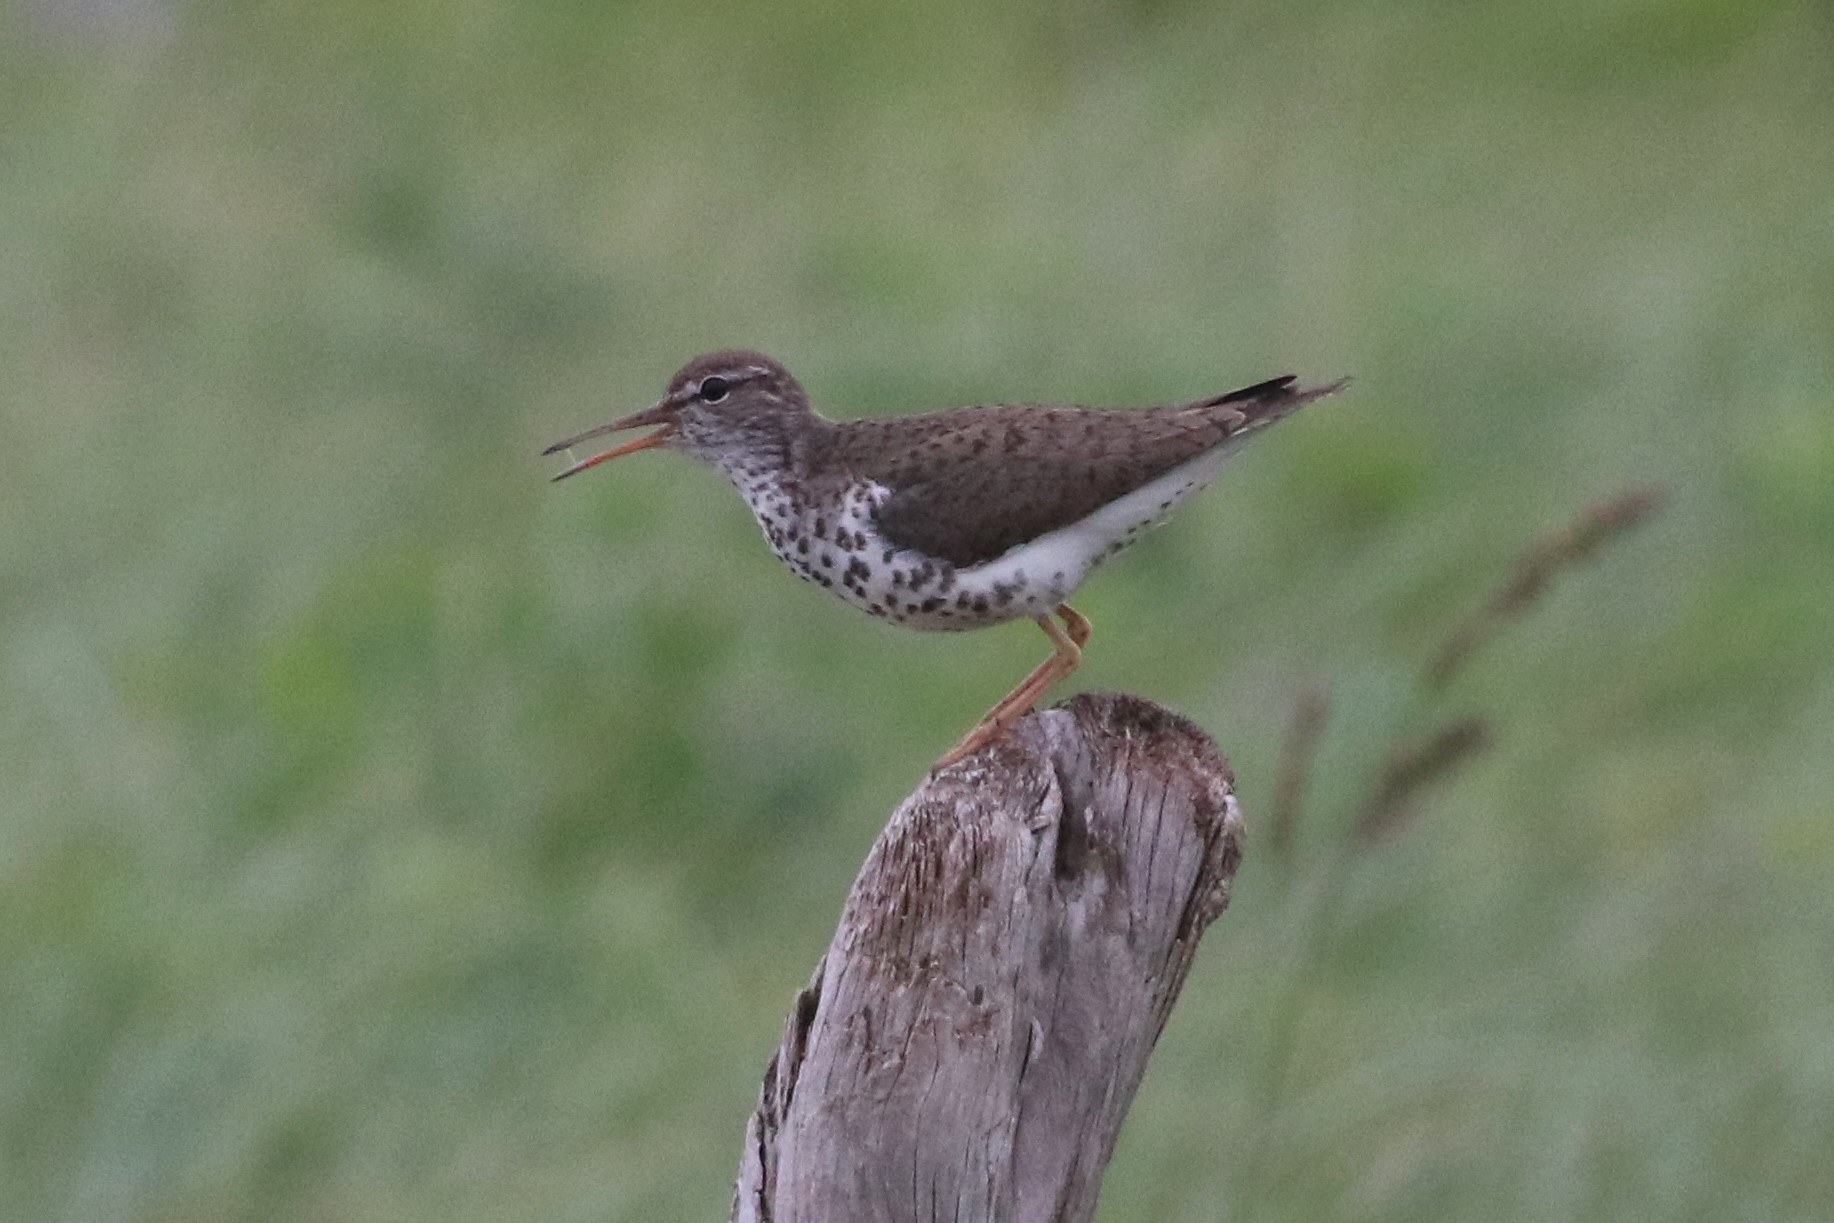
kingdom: Animalia
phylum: Chordata
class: Aves
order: Charadriiformes
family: Scolopacidae
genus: Actitis
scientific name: Actitis macularius
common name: Spotted sandpiper
